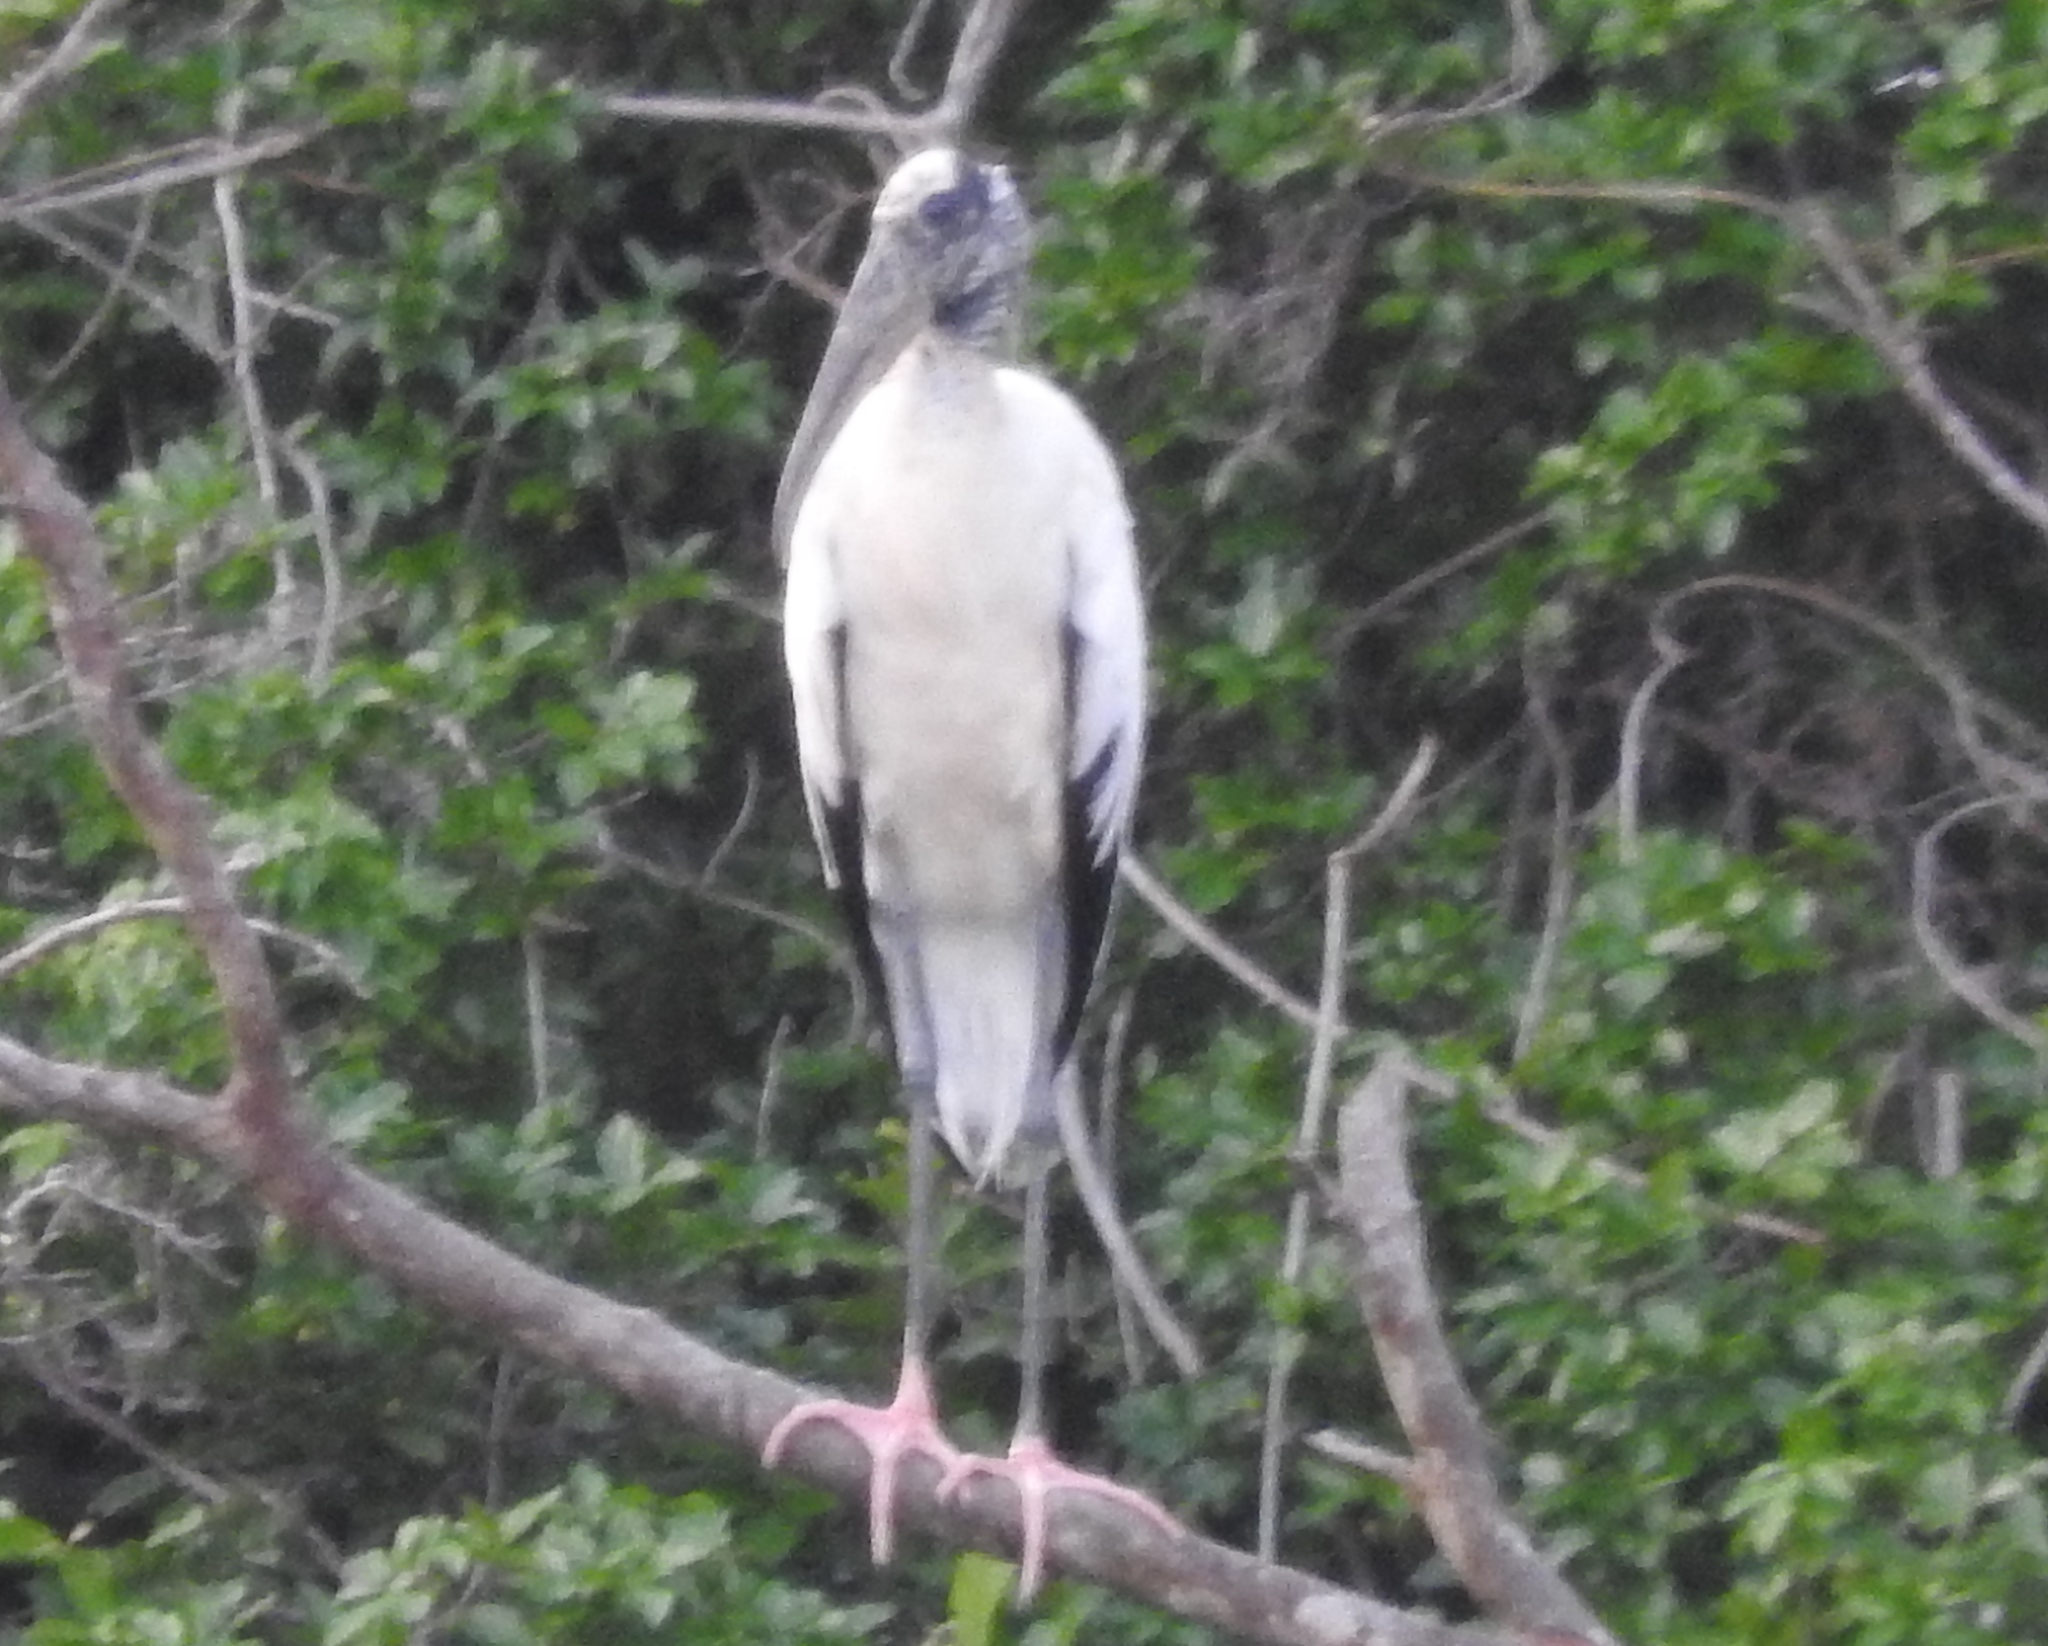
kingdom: Animalia
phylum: Chordata
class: Aves
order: Ciconiiformes
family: Ciconiidae
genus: Mycteria
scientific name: Mycteria americana
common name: Wood stork
